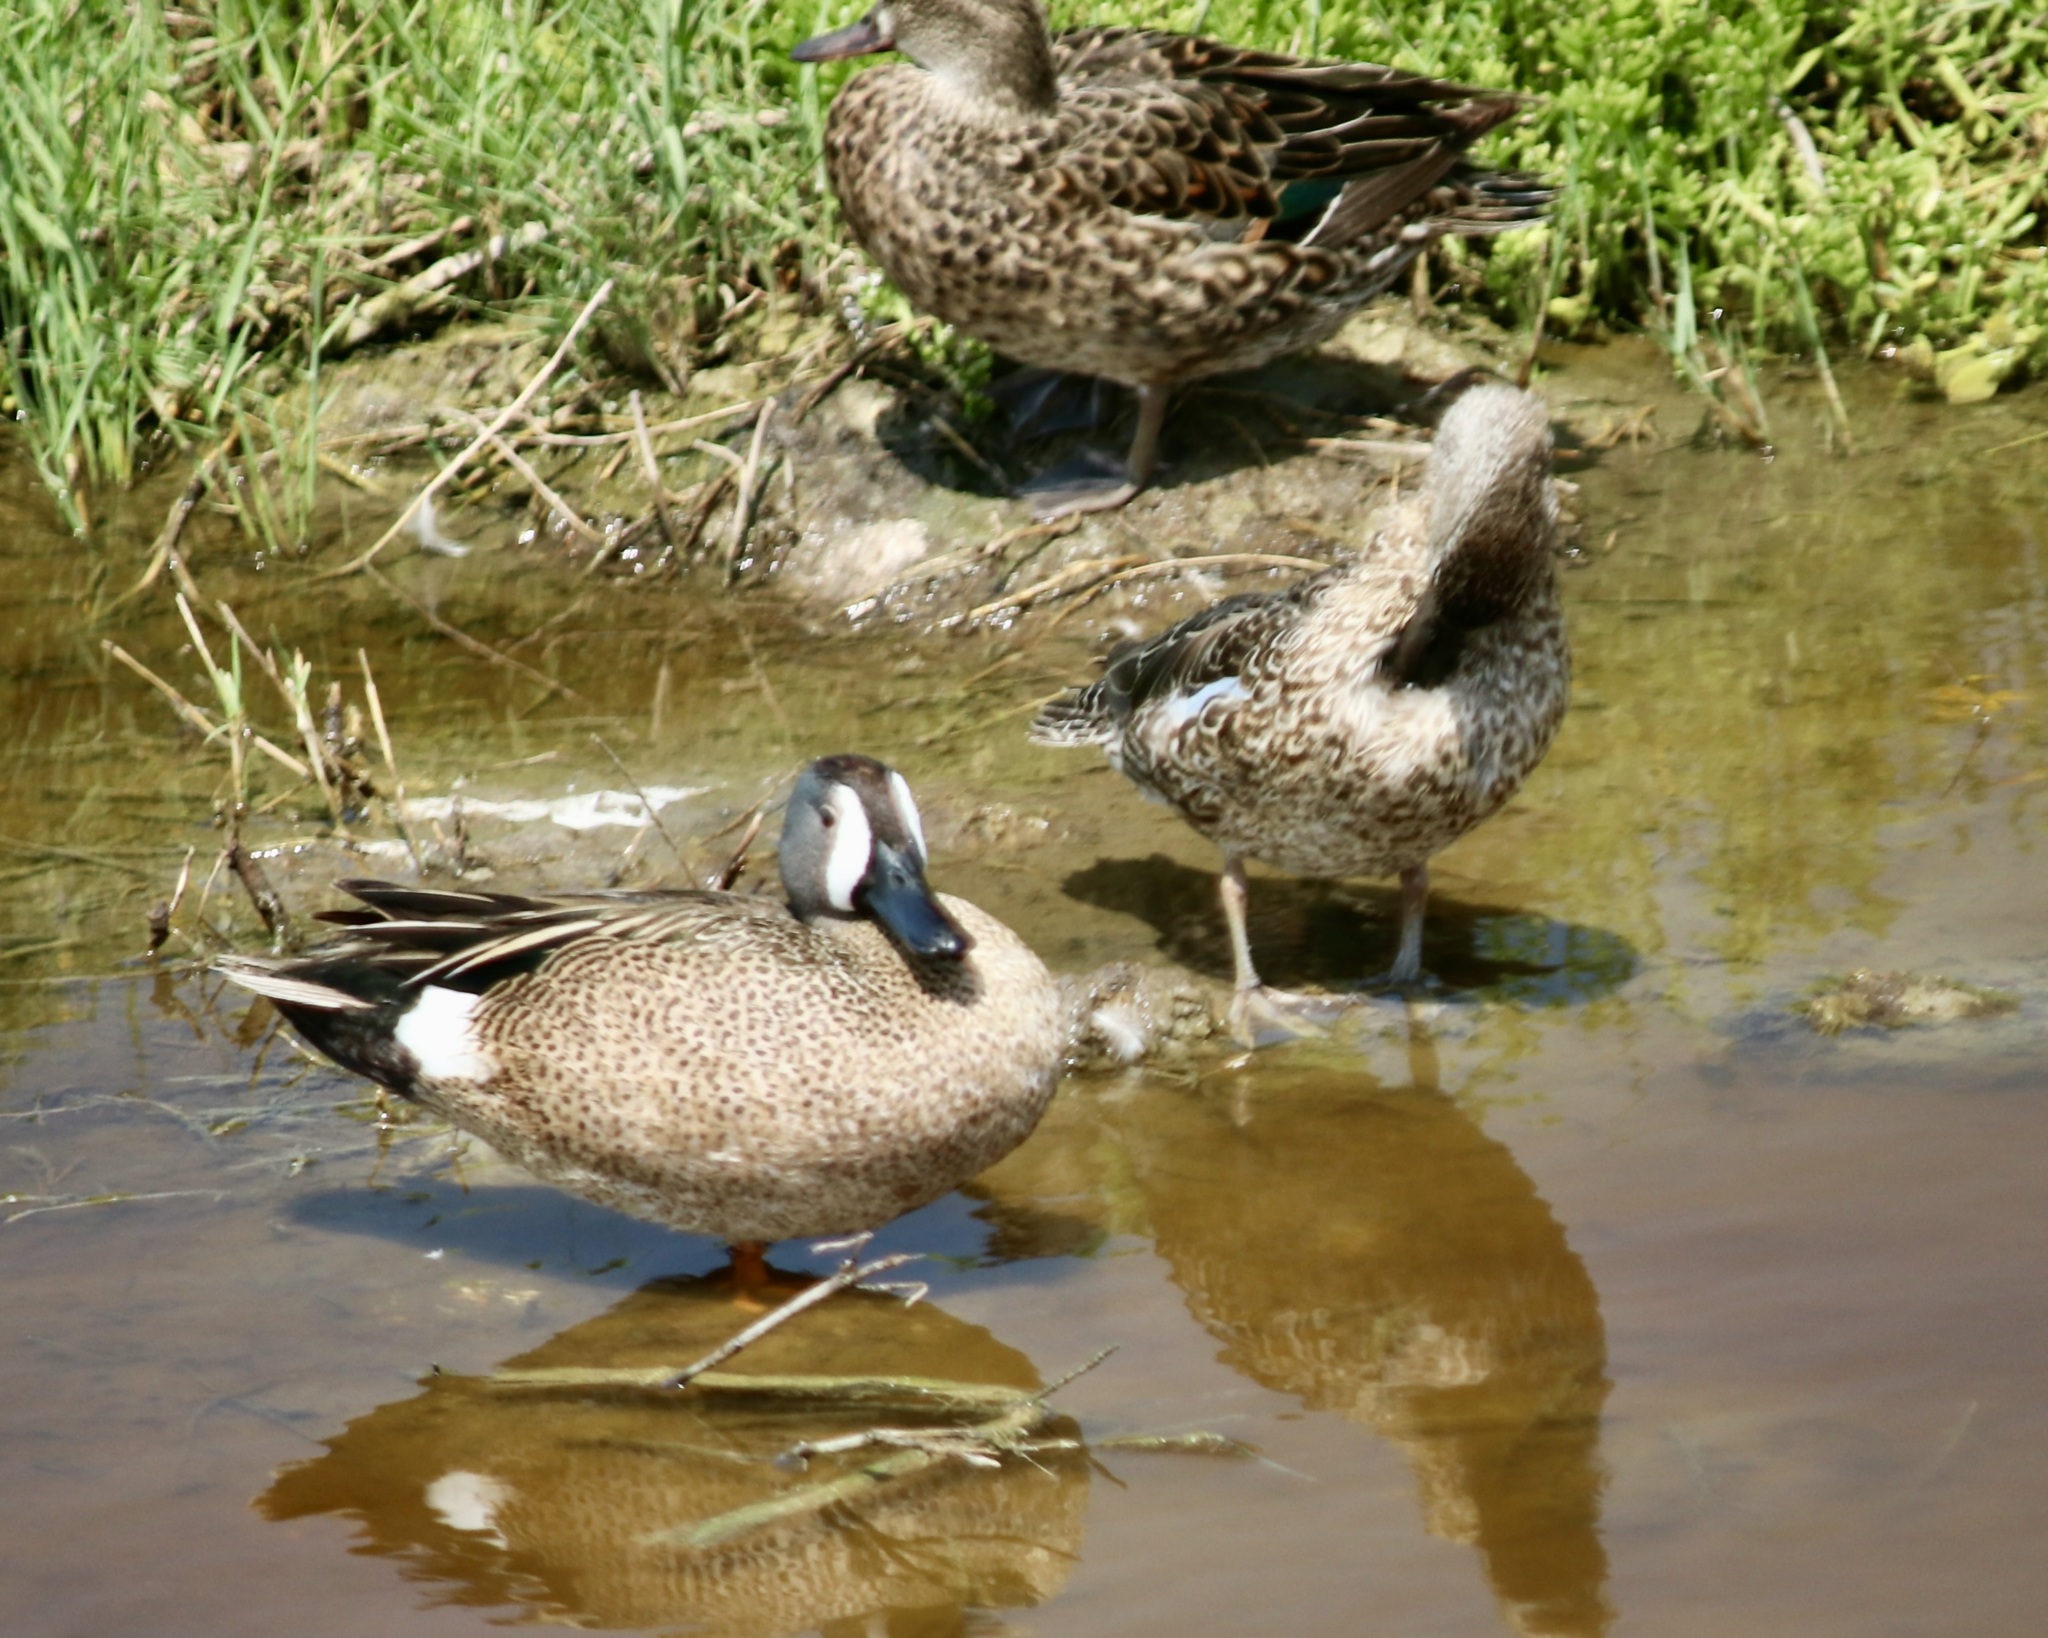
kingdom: Animalia
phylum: Chordata
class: Aves
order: Anseriformes
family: Anatidae
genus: Spatula
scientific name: Spatula discors
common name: Blue-winged teal
